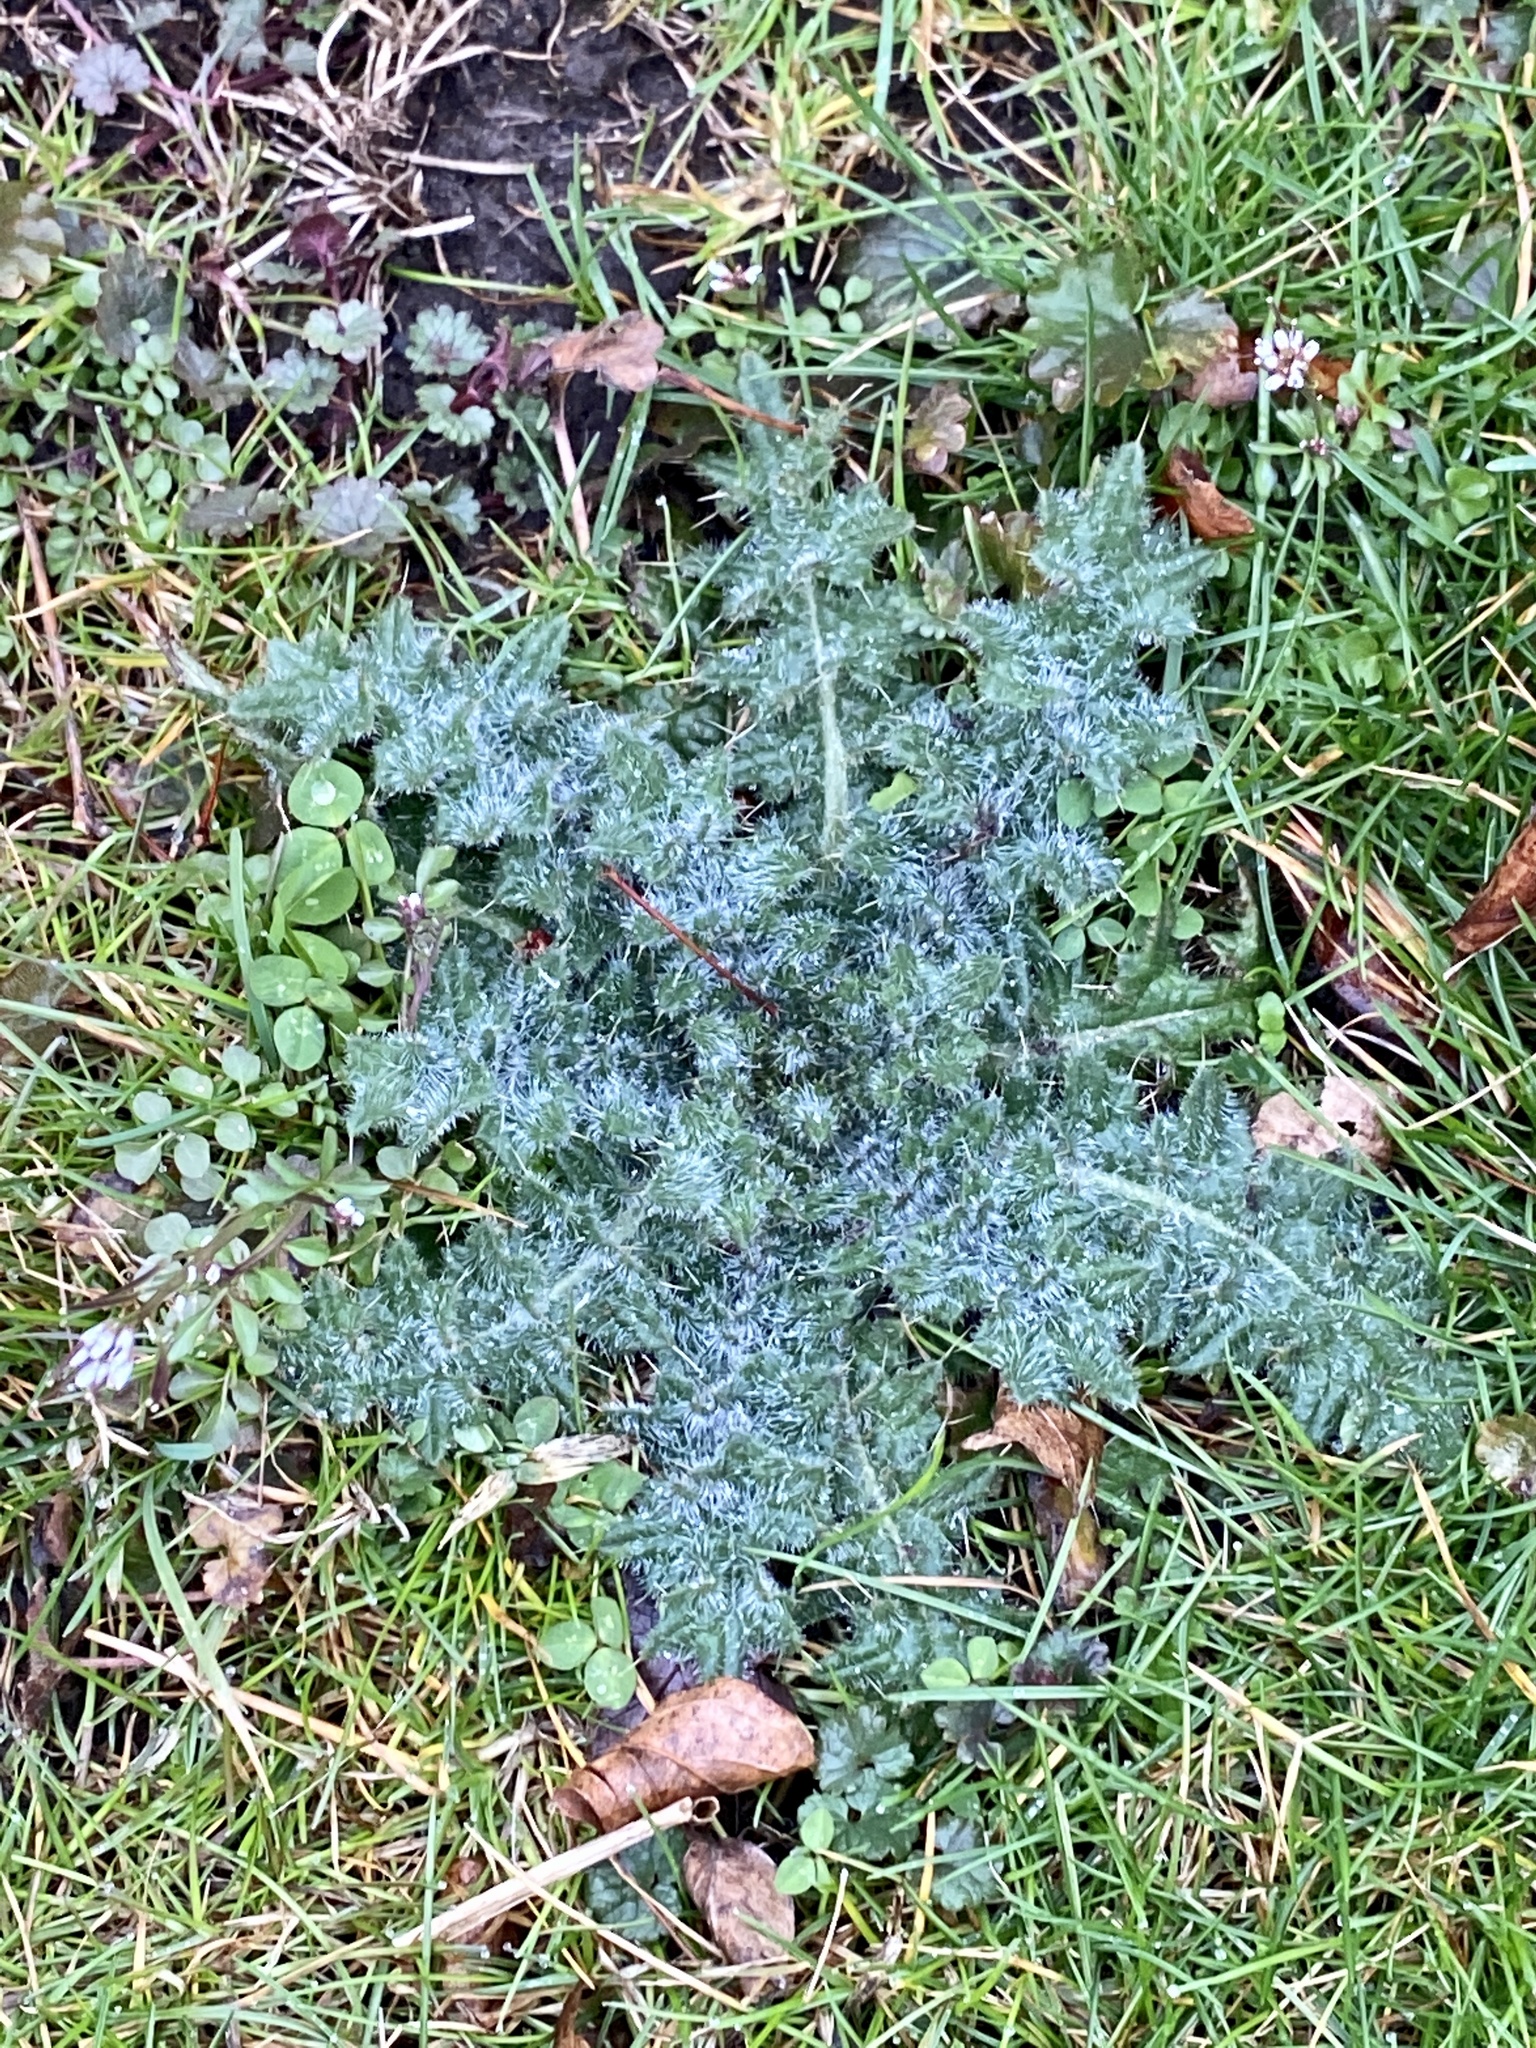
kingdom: Plantae
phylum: Tracheophyta
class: Magnoliopsida
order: Asterales
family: Asteraceae
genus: Cirsium
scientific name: Cirsium vulgare
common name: Bull thistle
